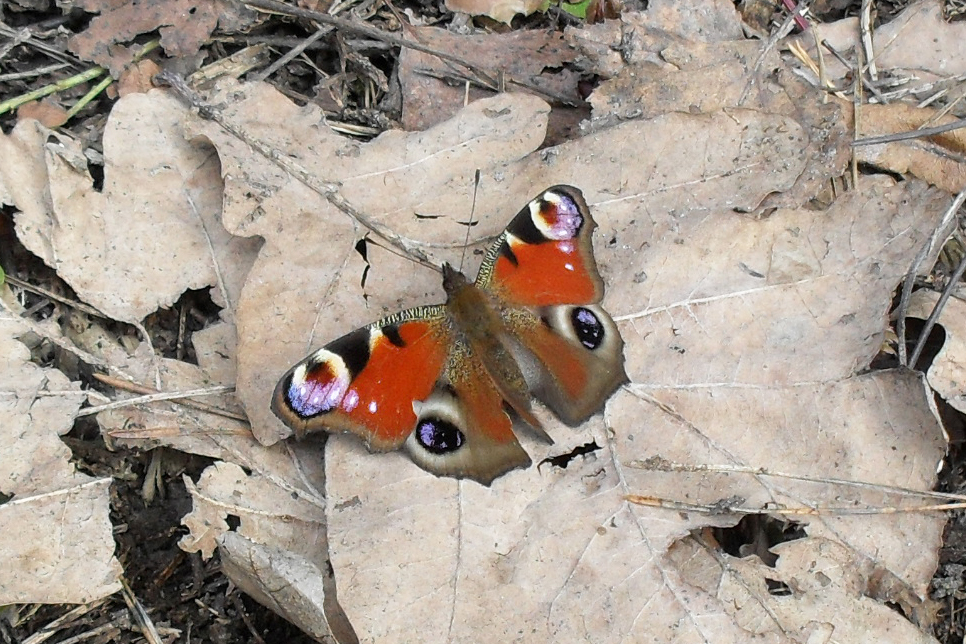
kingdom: Animalia
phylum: Arthropoda
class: Insecta
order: Lepidoptera
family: Nymphalidae
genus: Aglais
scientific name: Aglais io
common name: Peacock
